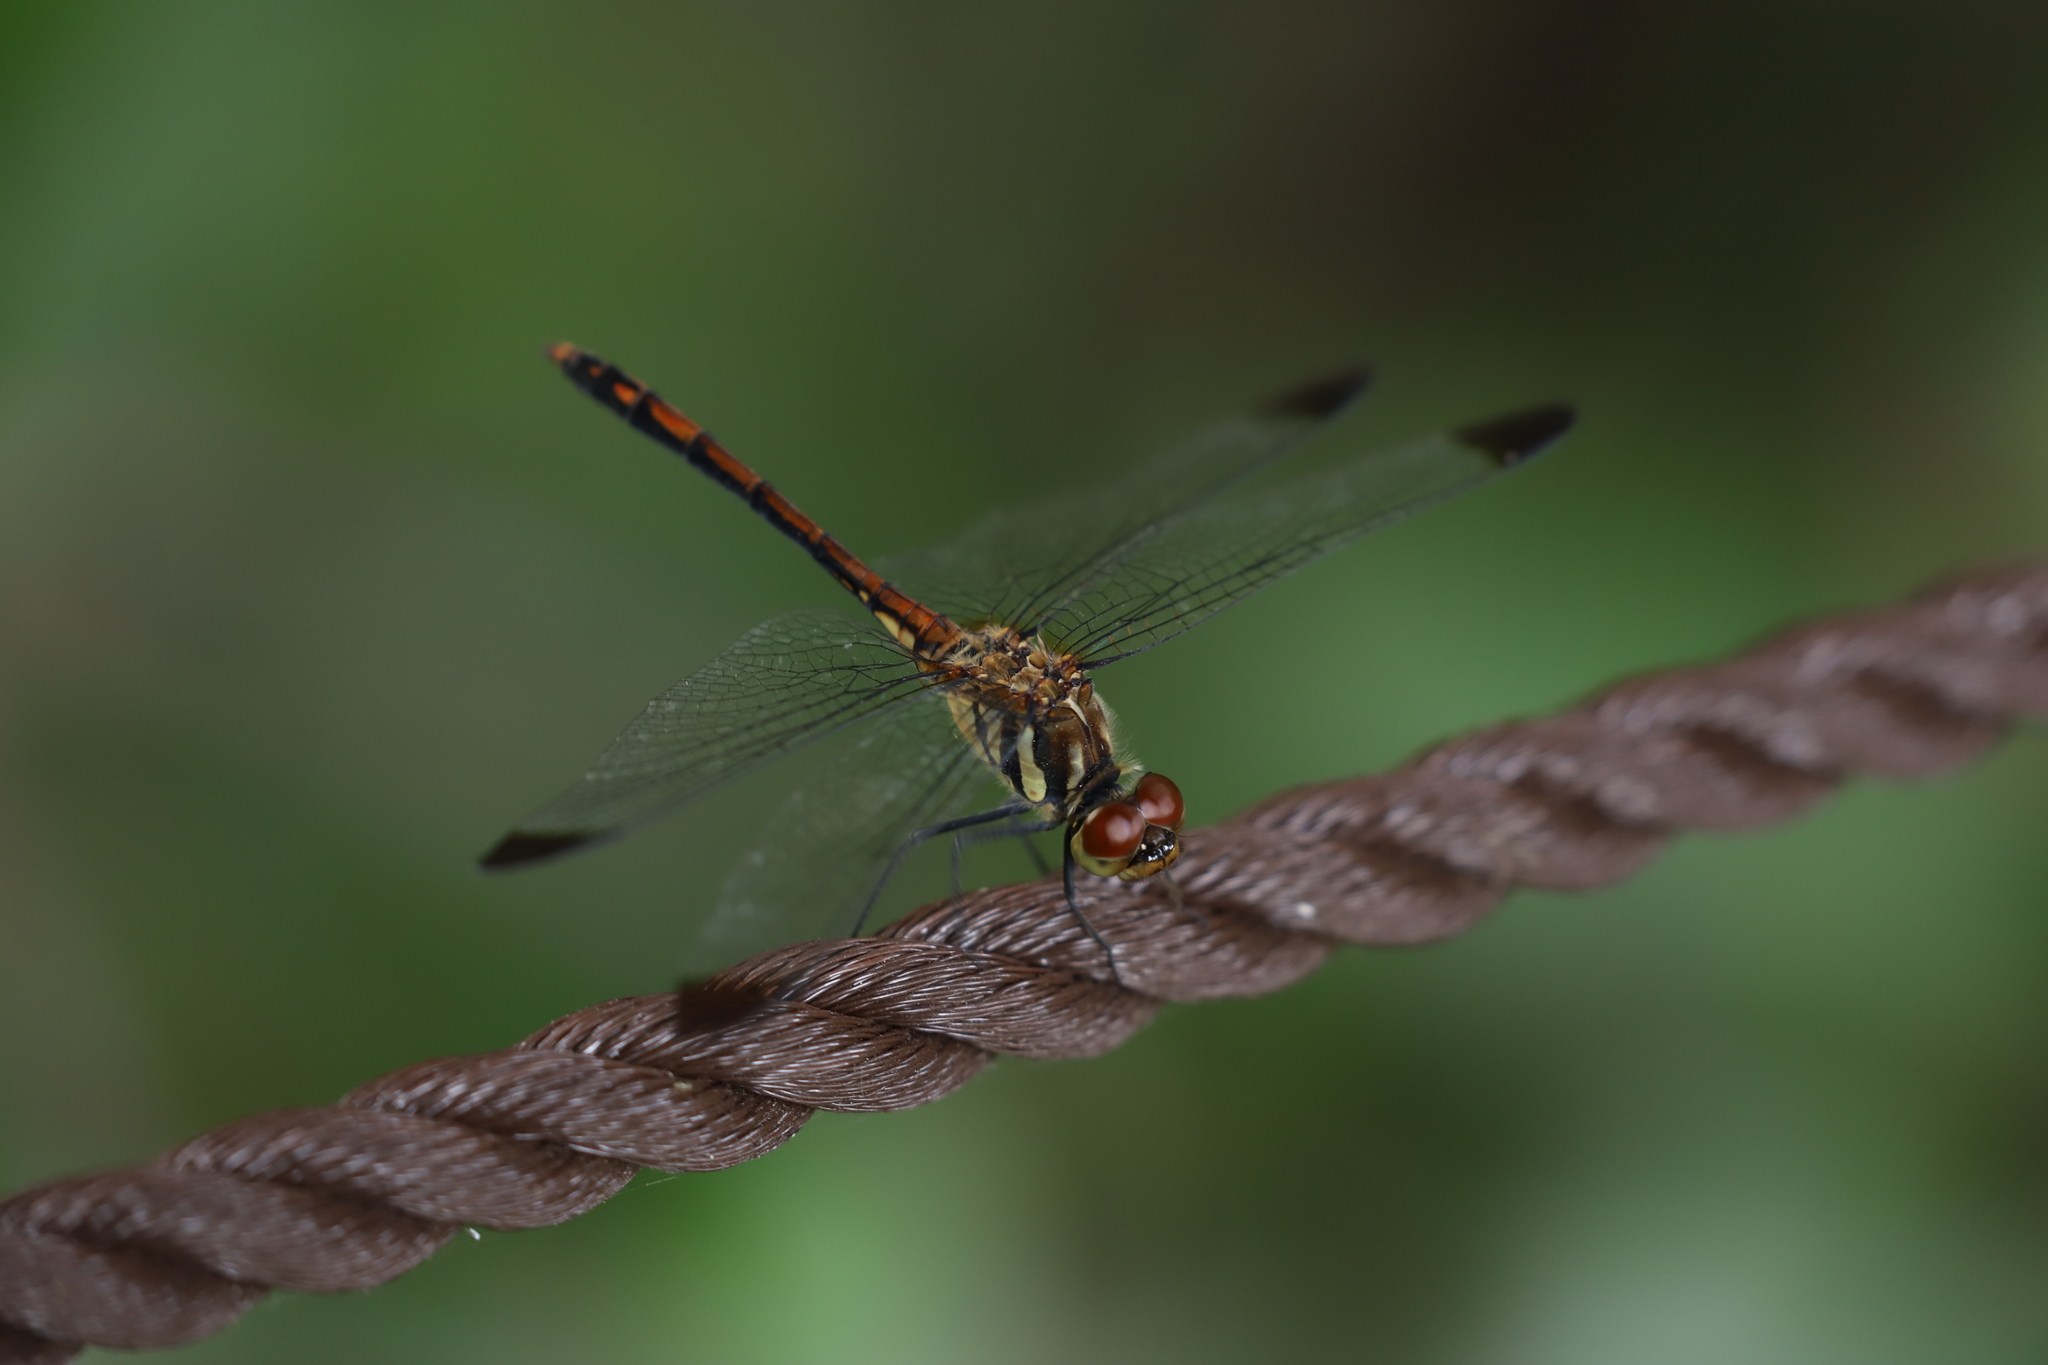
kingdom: Animalia
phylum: Arthropoda
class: Insecta
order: Odonata
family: Libellulidae
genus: Sympetrum
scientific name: Sympetrum infuscatum
